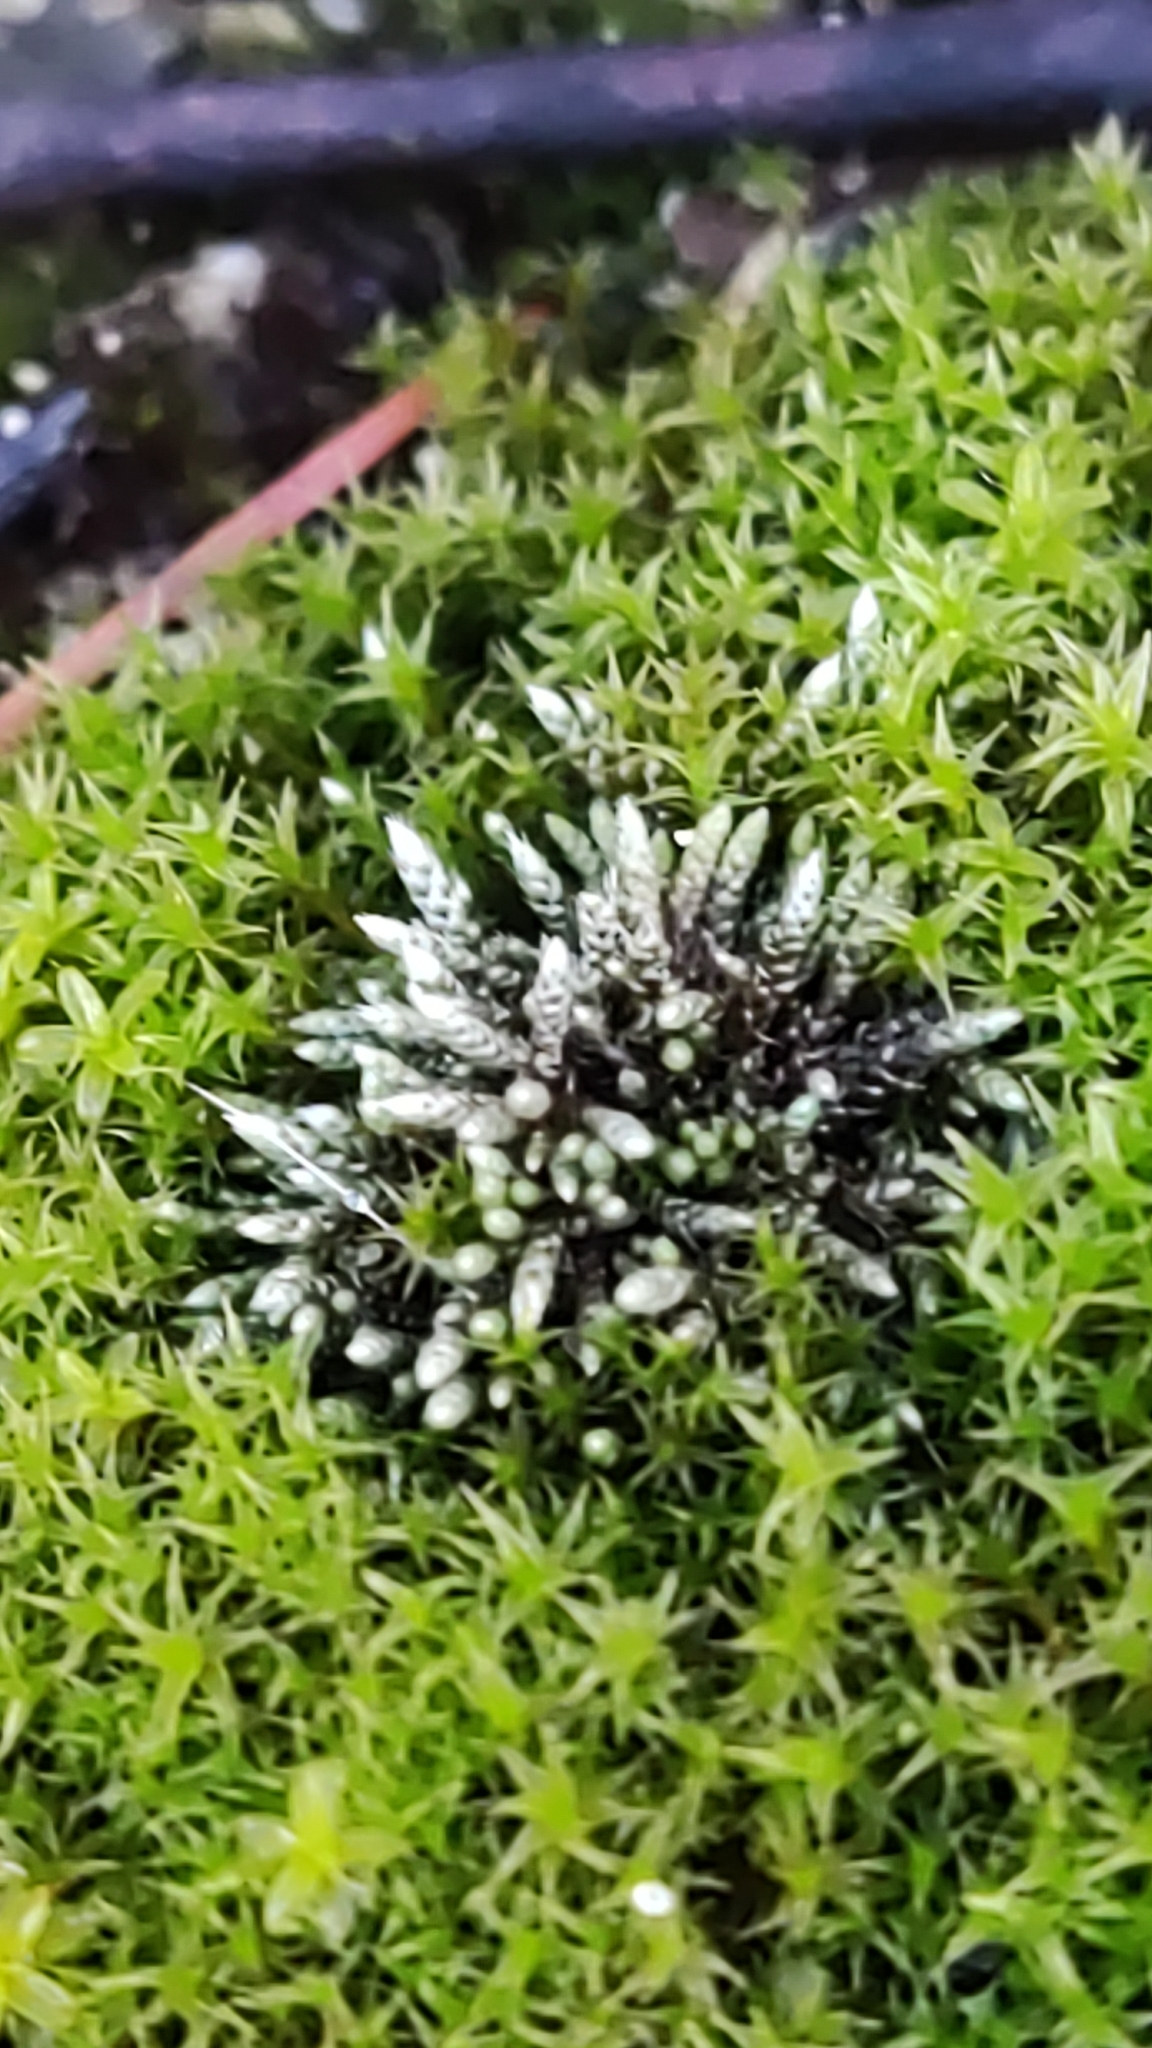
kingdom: Plantae
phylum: Bryophyta
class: Bryopsida
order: Bryales
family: Bryaceae
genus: Bryum
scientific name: Bryum argenteum
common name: Silver-moss
